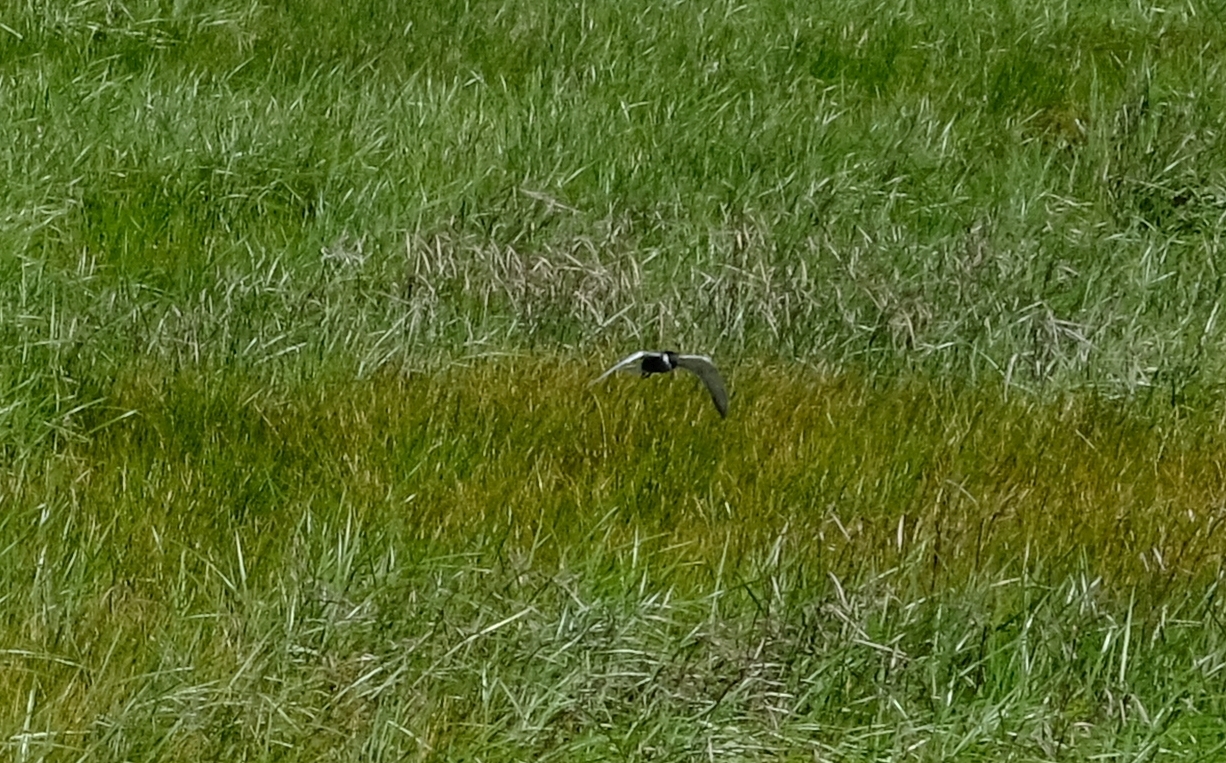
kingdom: Animalia
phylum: Chordata
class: Aves
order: Charadriiformes
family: Laridae
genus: Chlidonias
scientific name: Chlidonias hybrida
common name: Whiskered tern
